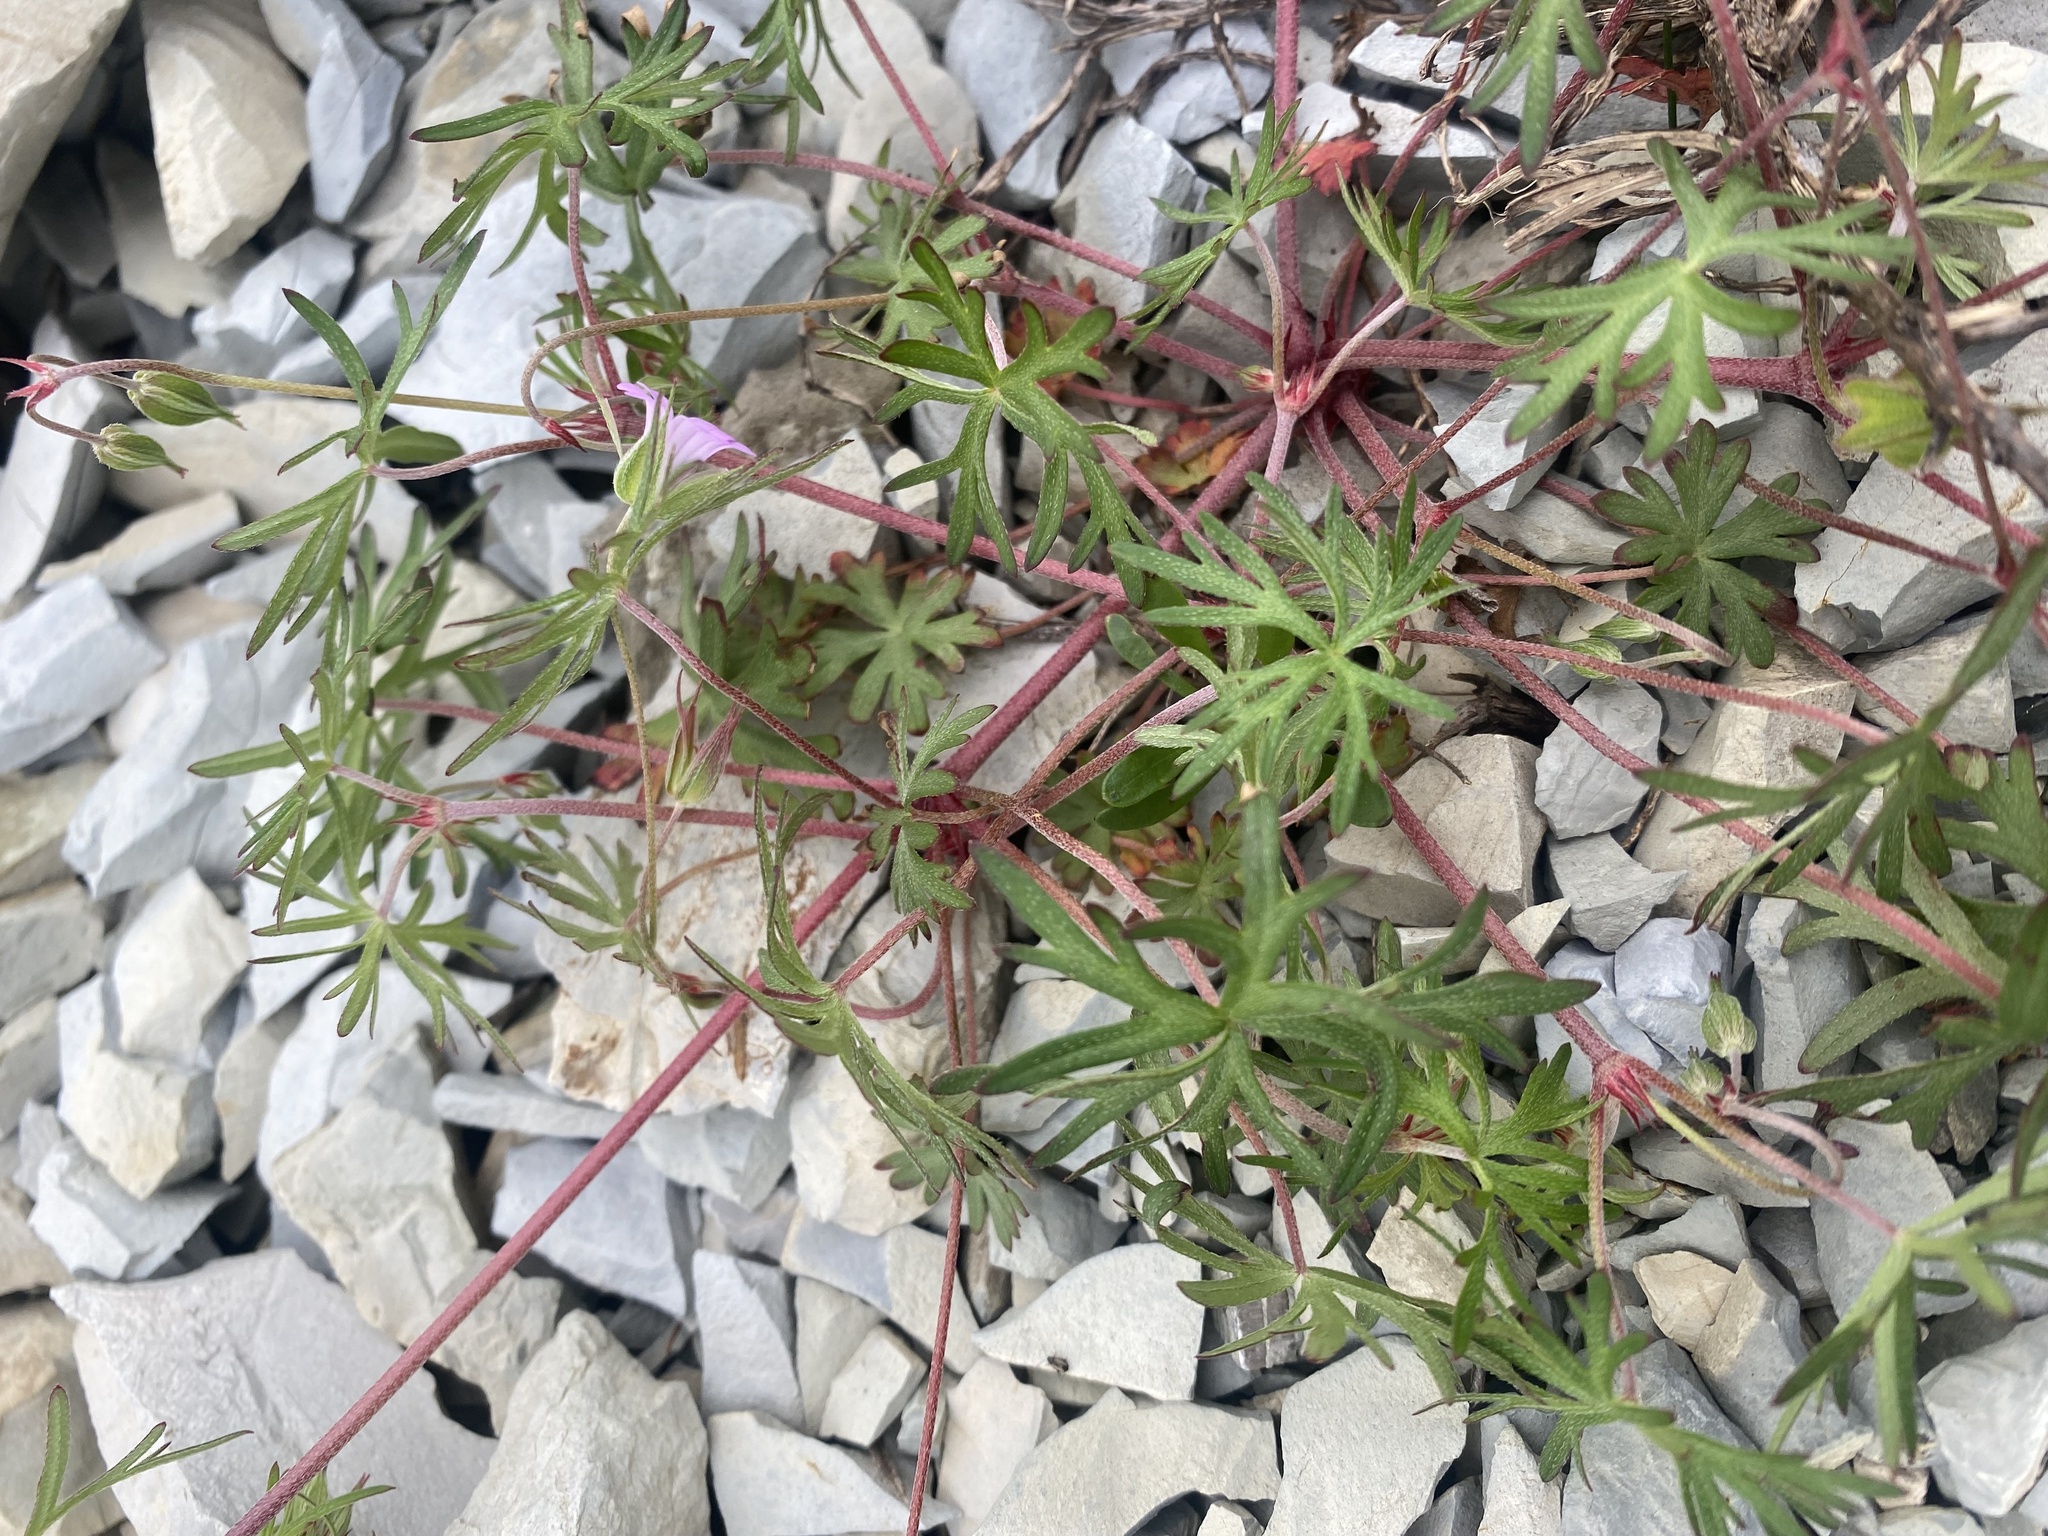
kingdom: Plantae
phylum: Tracheophyta
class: Magnoliopsida
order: Geraniales
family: Geraniaceae
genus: Geranium
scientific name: Geranium columbinum
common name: Long-stalked crane's-bill
